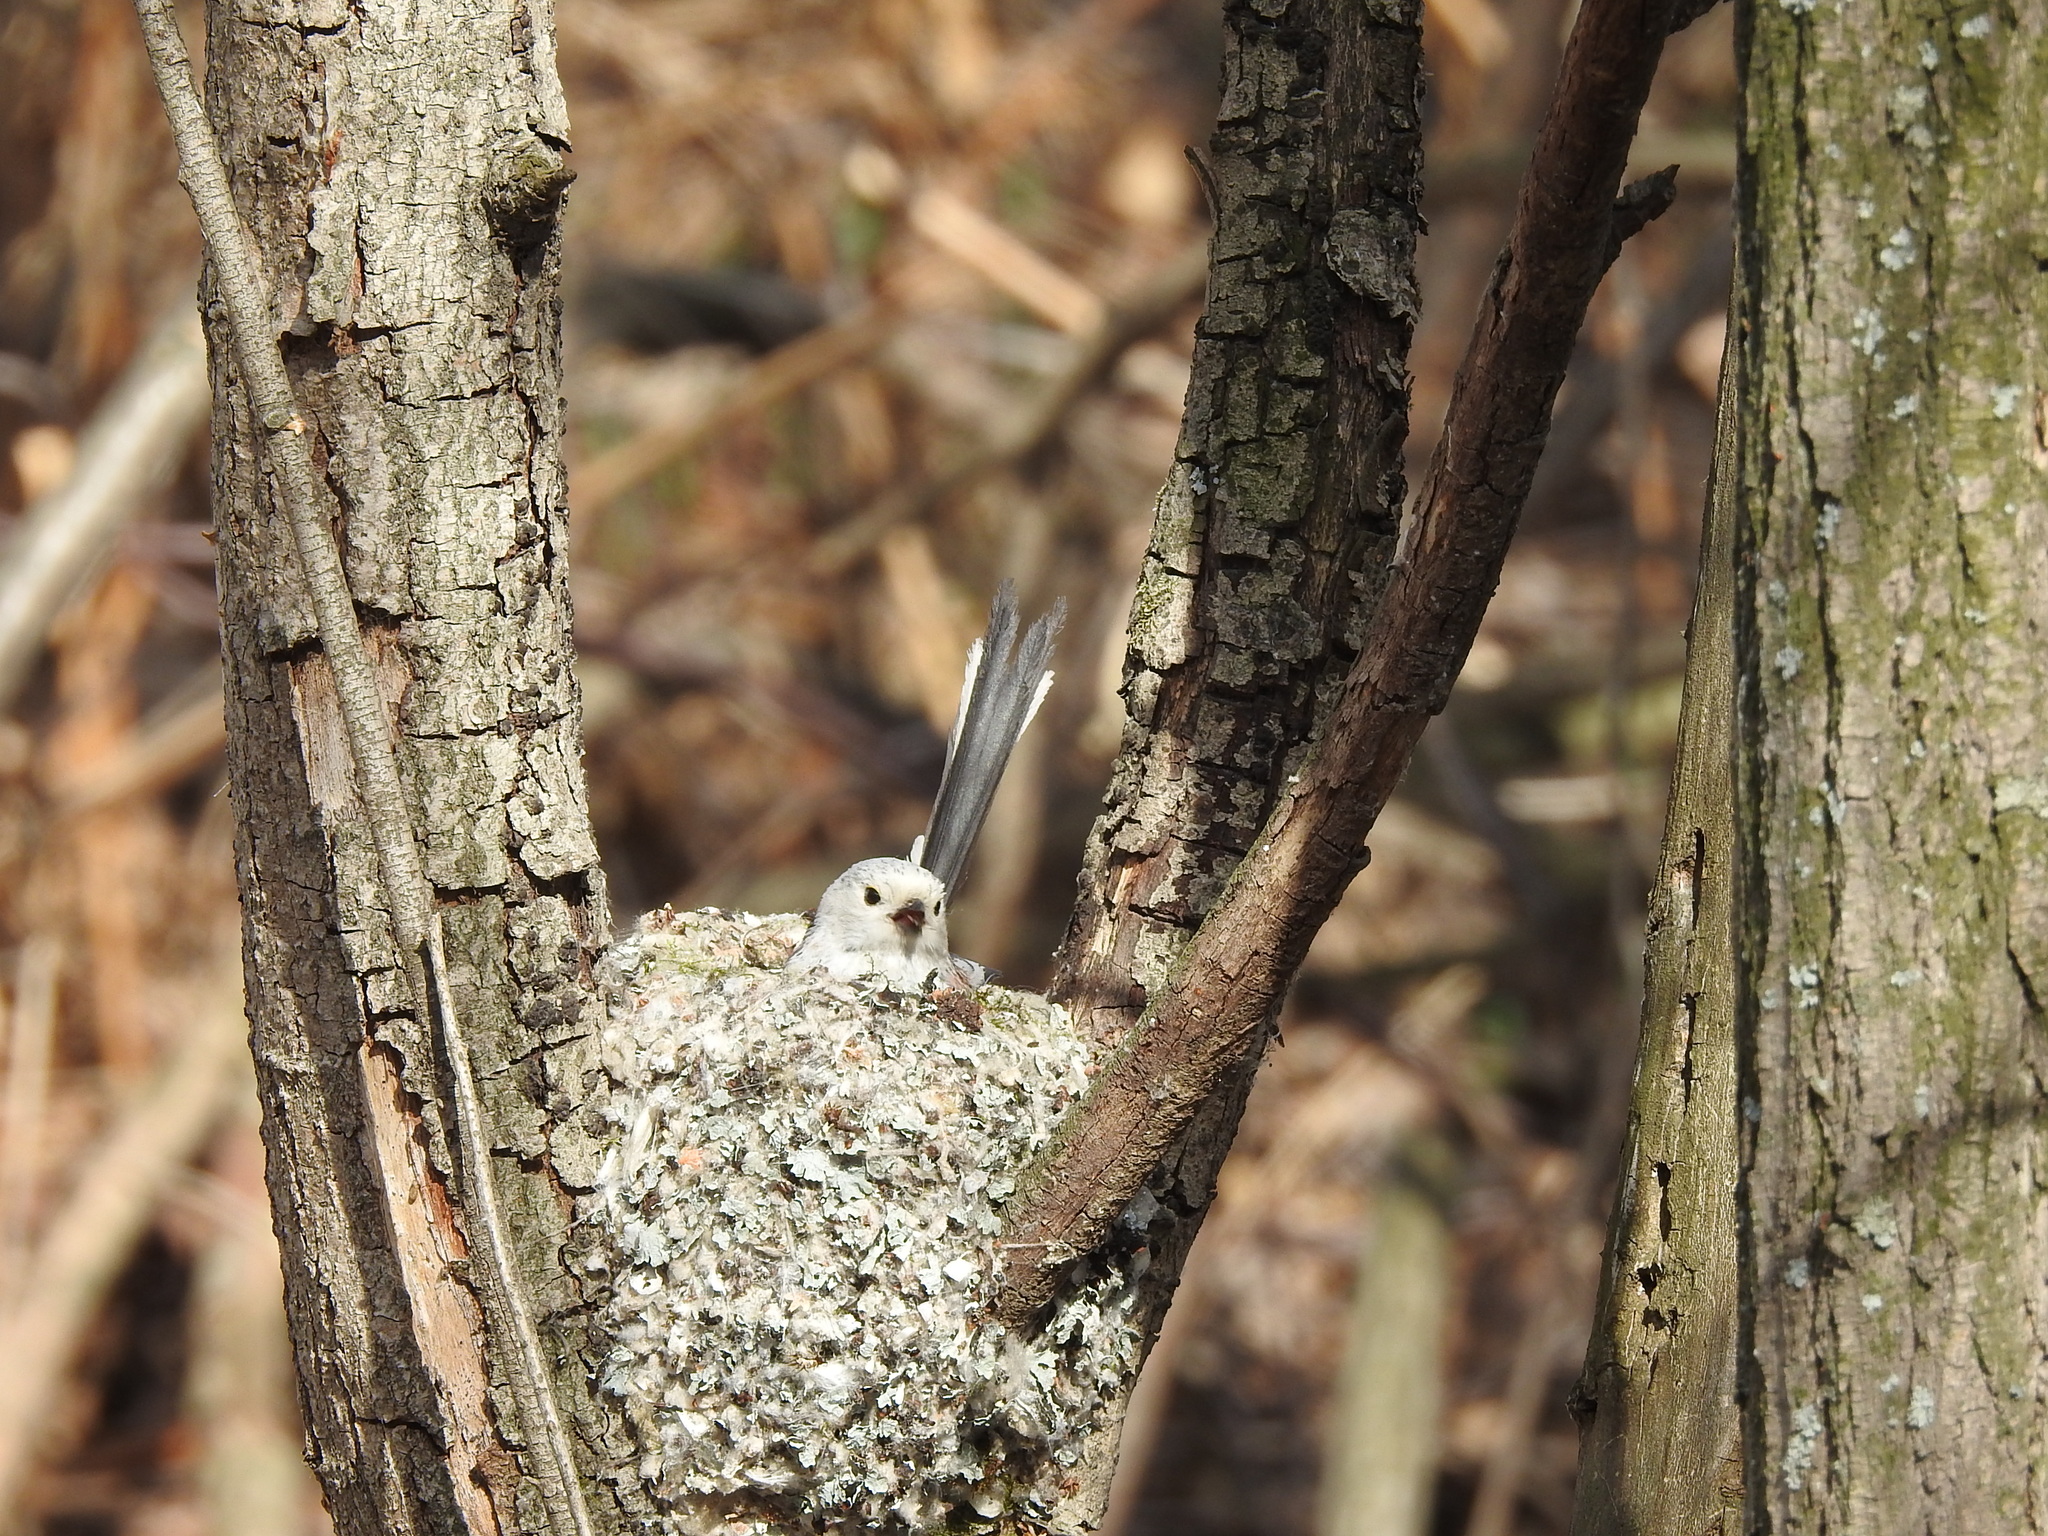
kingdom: Animalia
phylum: Chordata
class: Aves
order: Passeriformes
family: Aegithalidae
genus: Aegithalos
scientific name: Aegithalos caudatus
